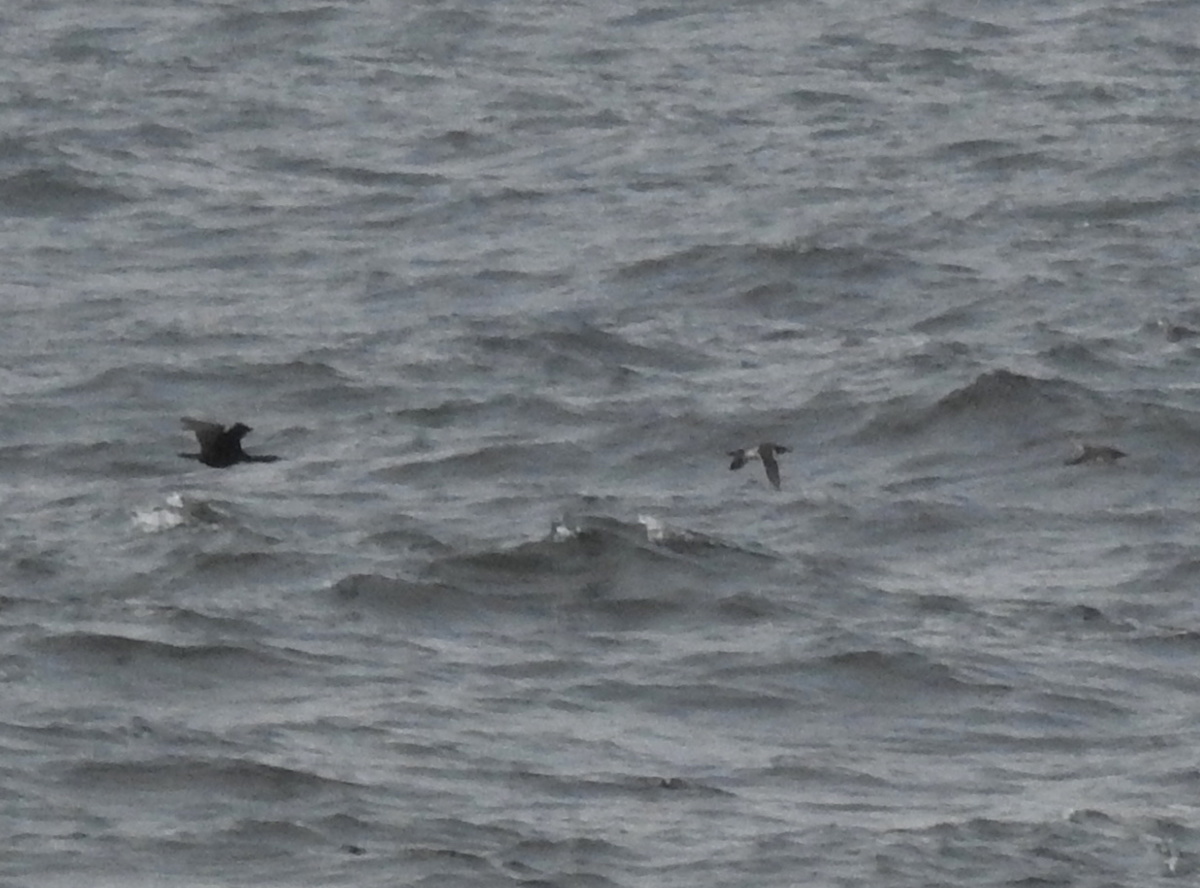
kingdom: Animalia
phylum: Chordata
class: Aves
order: Suliformes
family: Phalacrocoracidae
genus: Phalacrocorax
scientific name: Phalacrocorax pelagicus
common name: Pelagic cormorant
